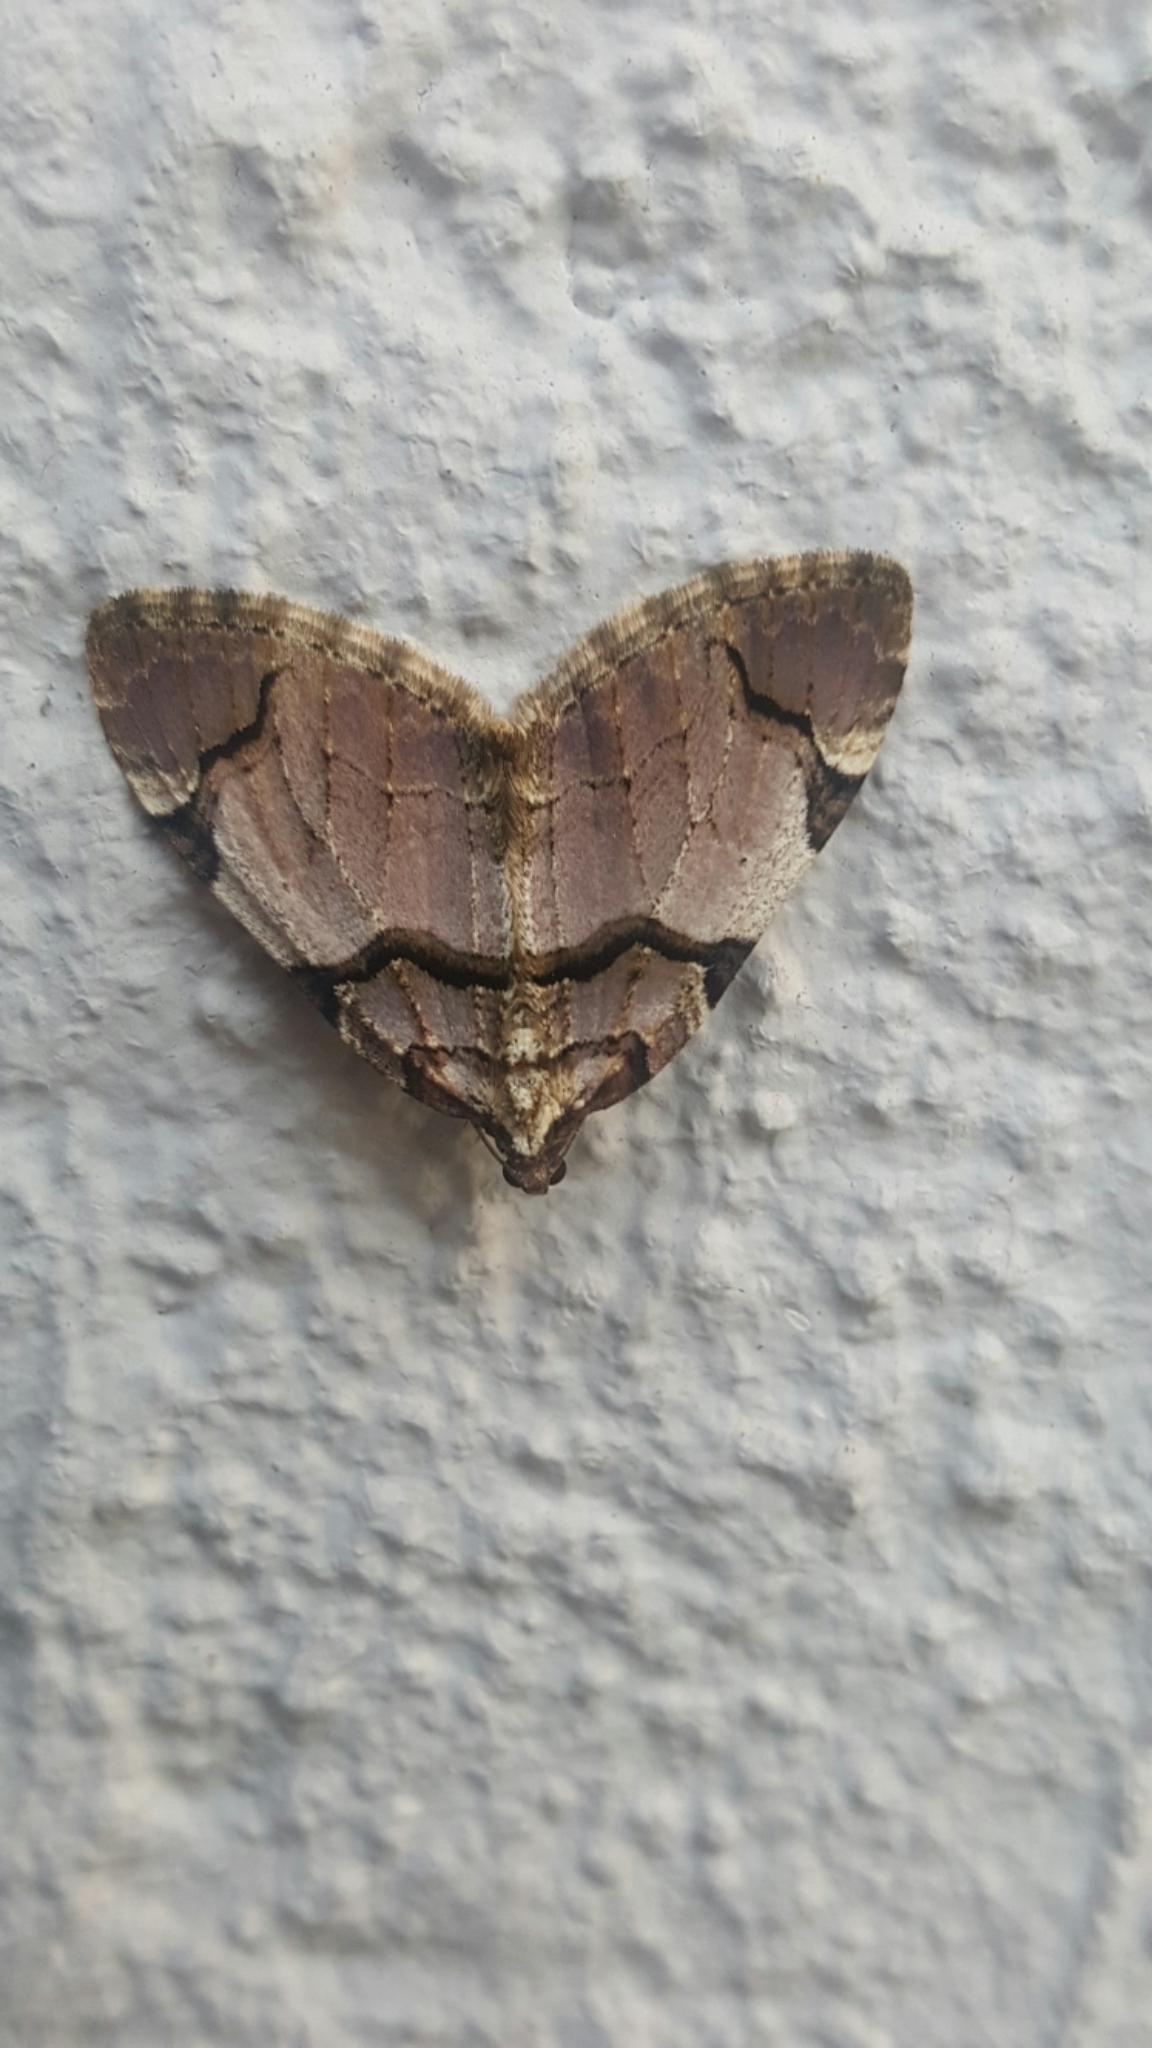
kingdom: Animalia
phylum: Arthropoda
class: Insecta
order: Lepidoptera
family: Geometridae
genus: Anticlea
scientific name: Anticlea derivata
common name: Streamer
